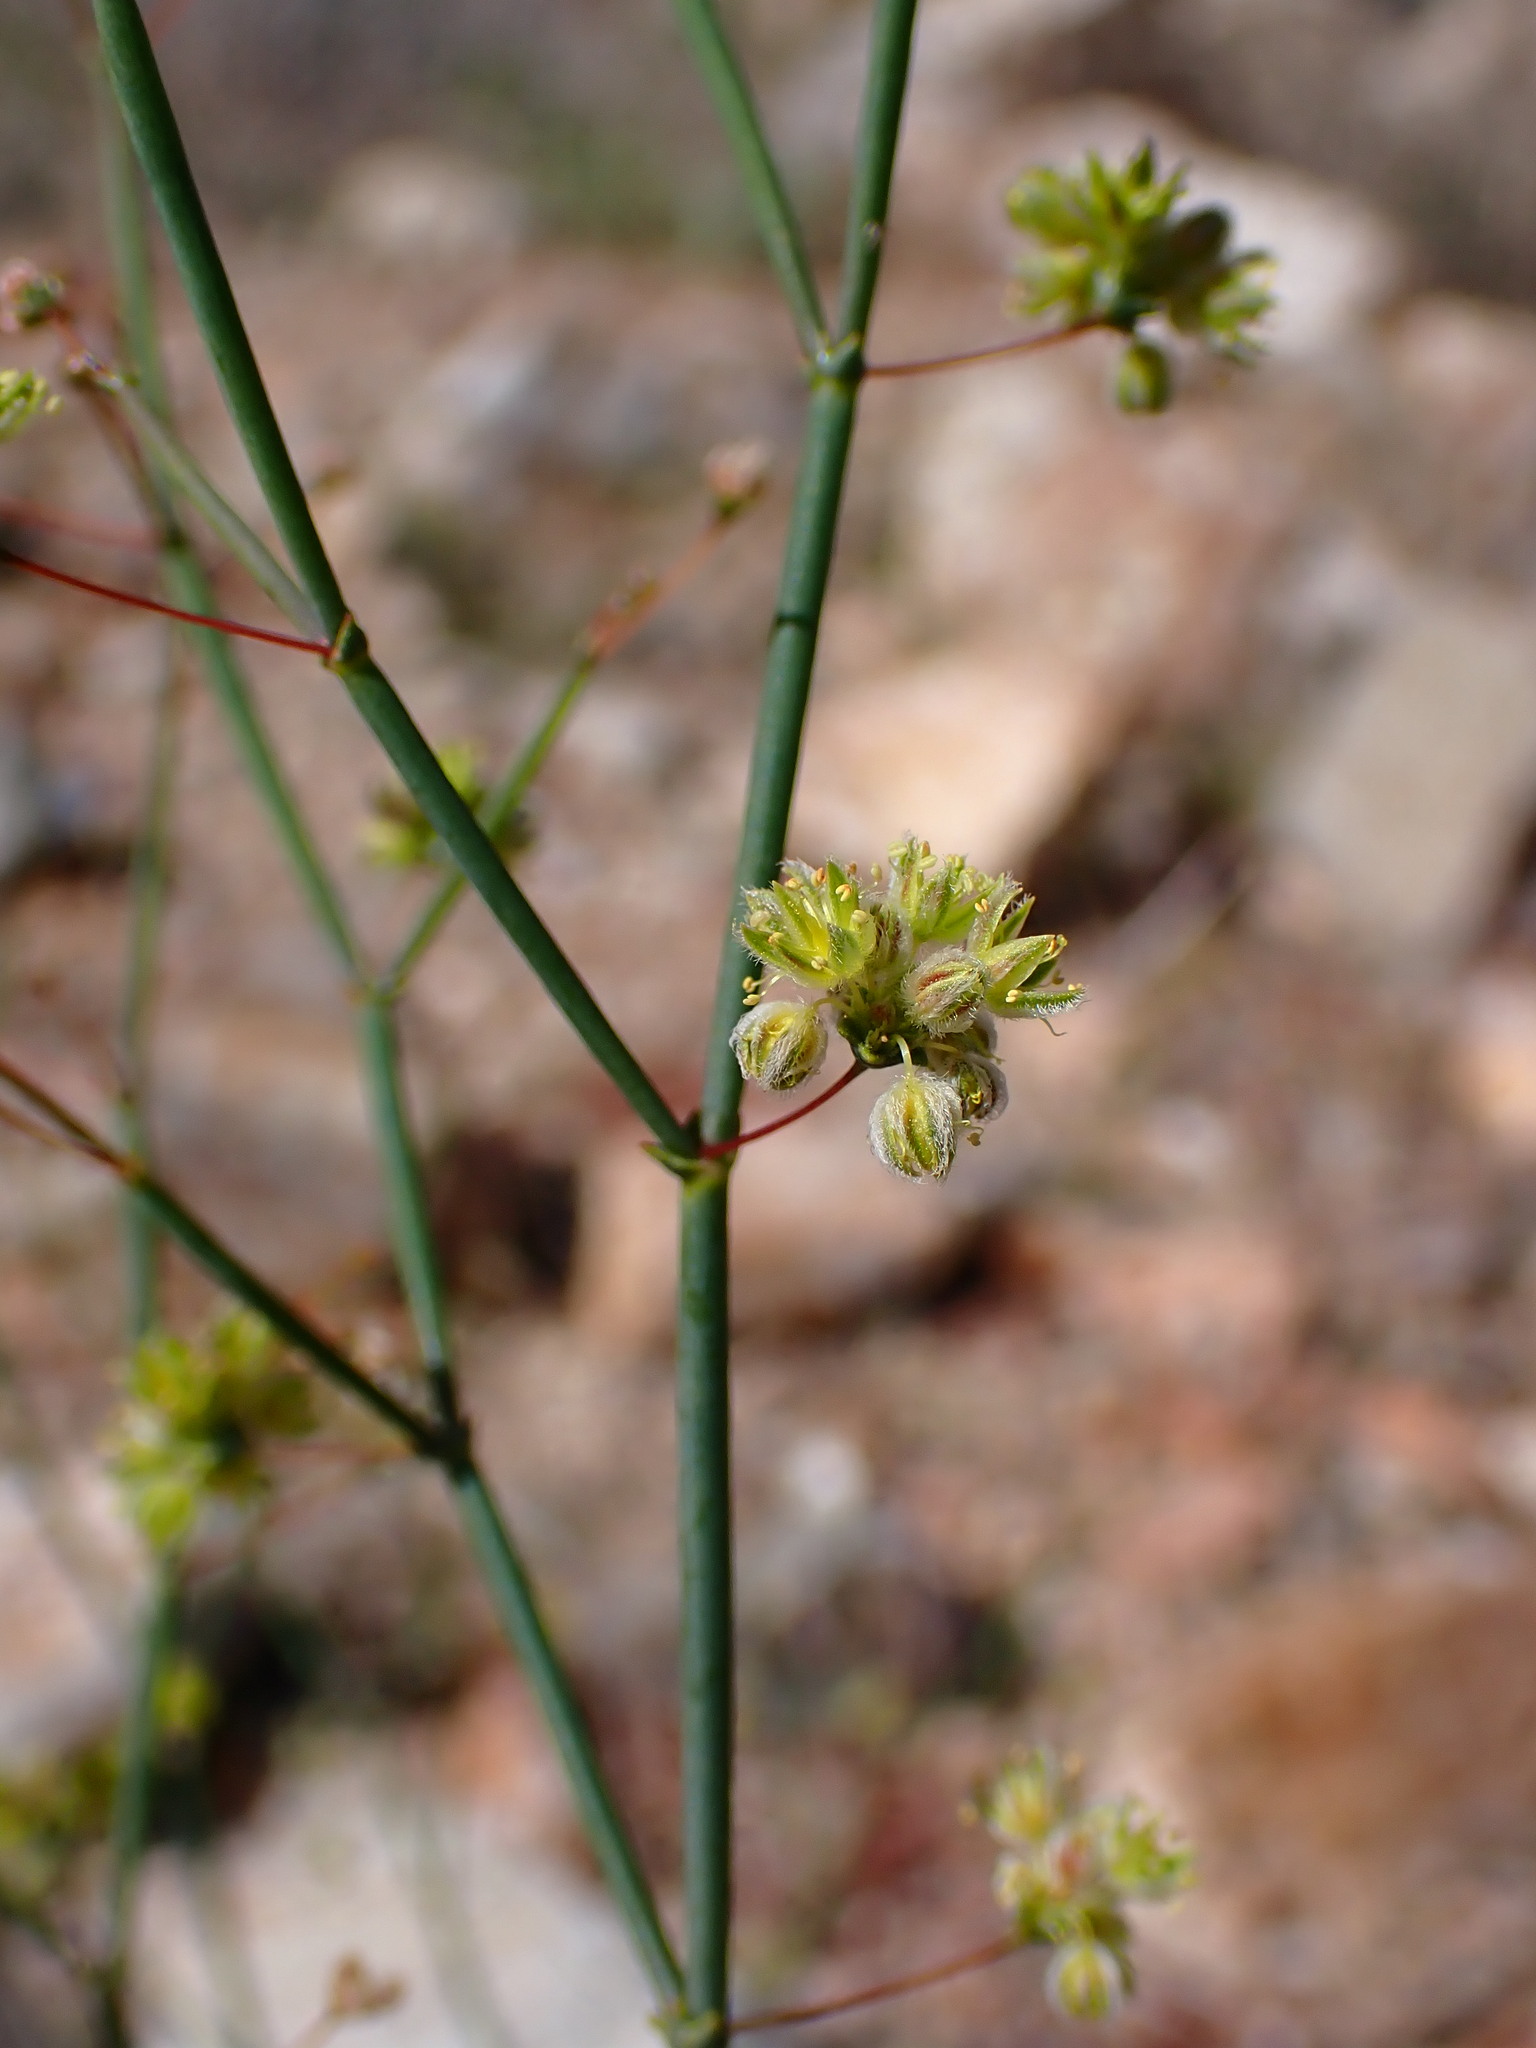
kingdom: Plantae
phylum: Tracheophyta
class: Magnoliopsida
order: Caryophyllales
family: Polygonaceae
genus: Eriogonum
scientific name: Eriogonum inflatum
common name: Desert trumpet
